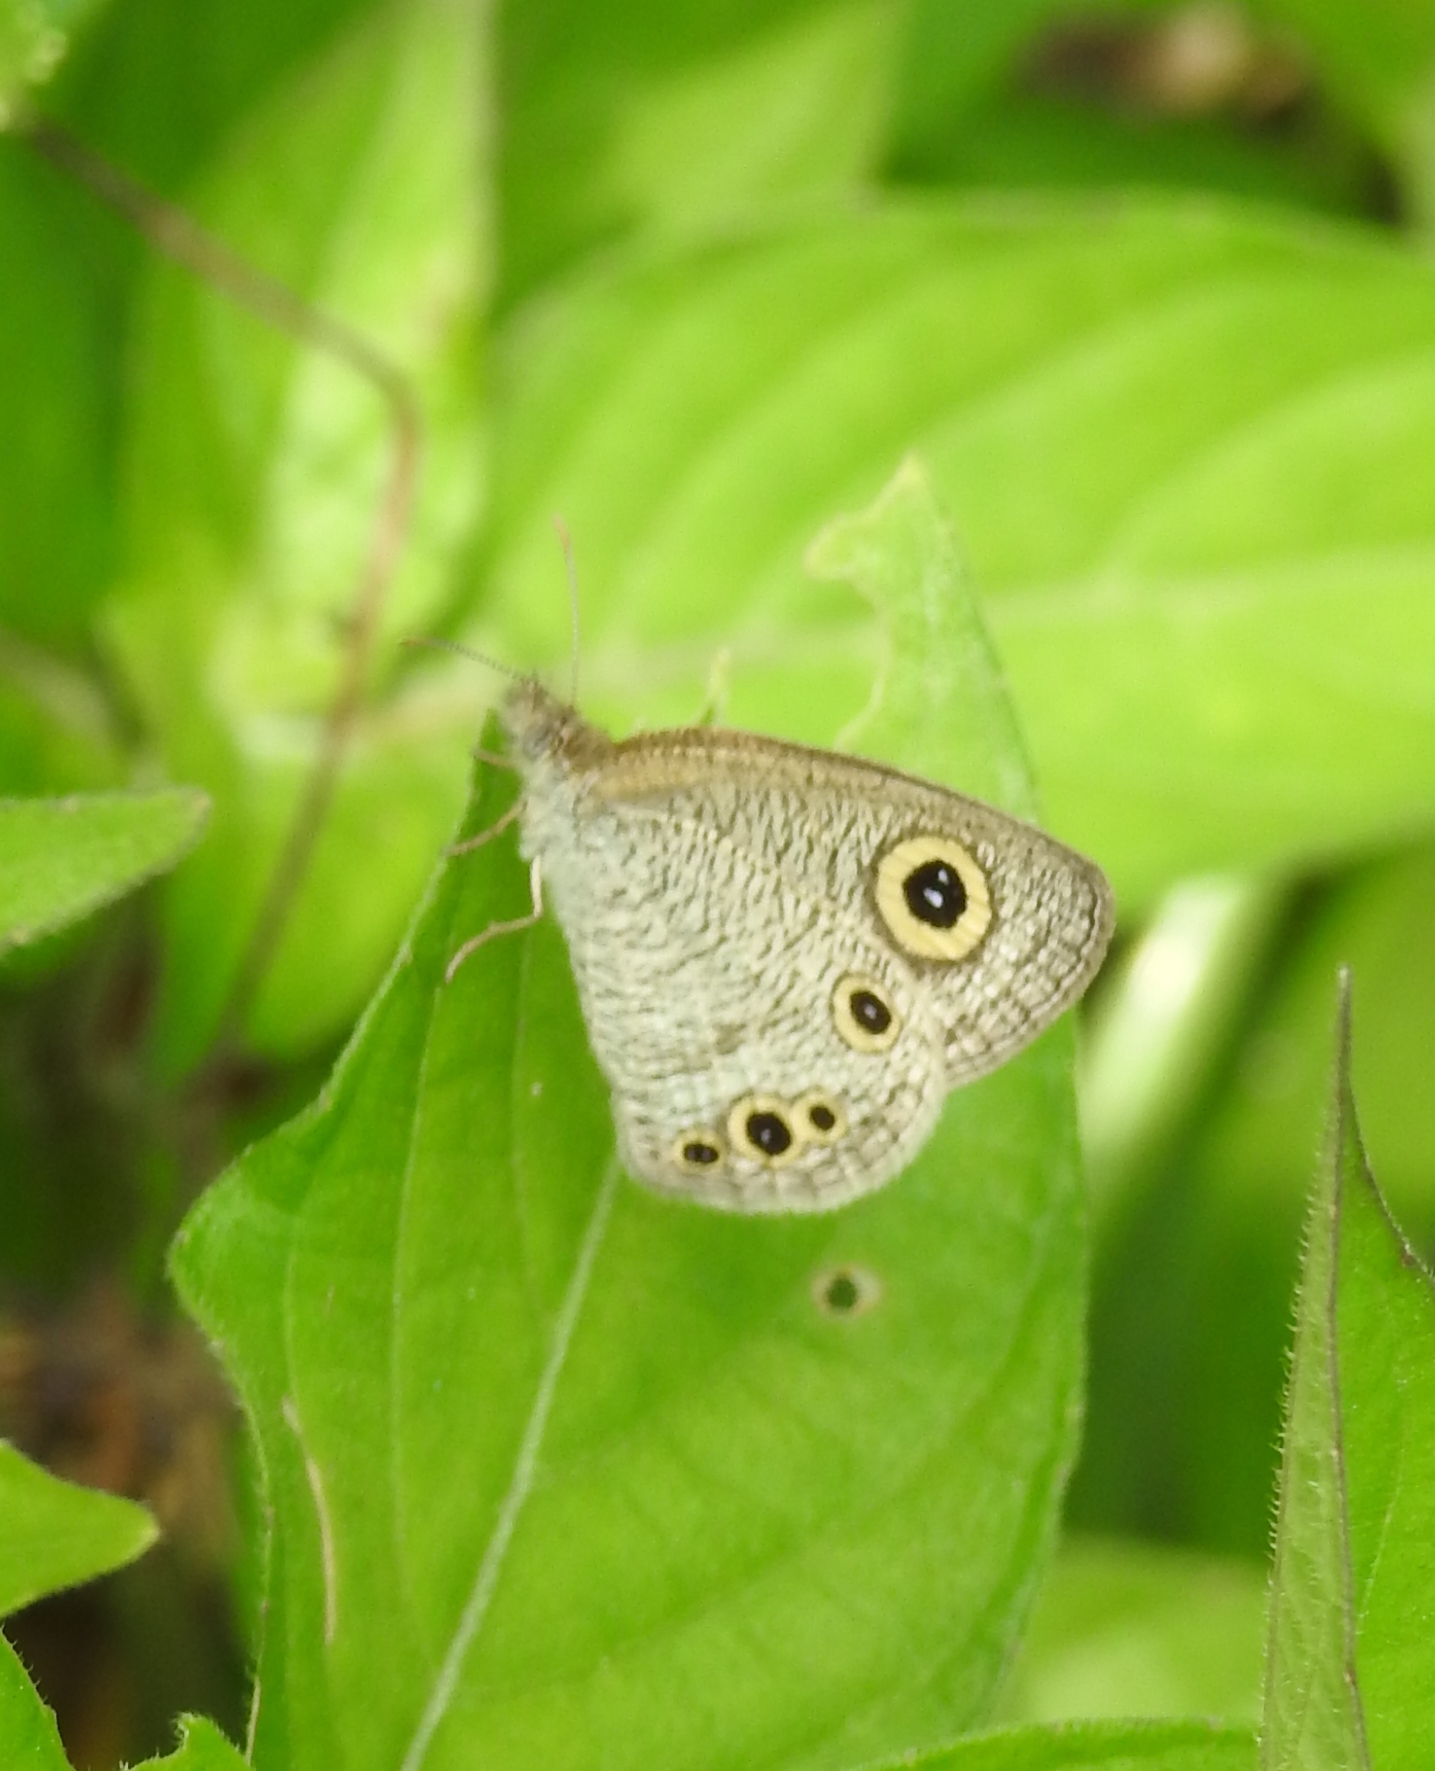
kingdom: Animalia
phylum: Arthropoda
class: Insecta
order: Lepidoptera
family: Nymphalidae
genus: Ypthima
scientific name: Ypthima huebneri
